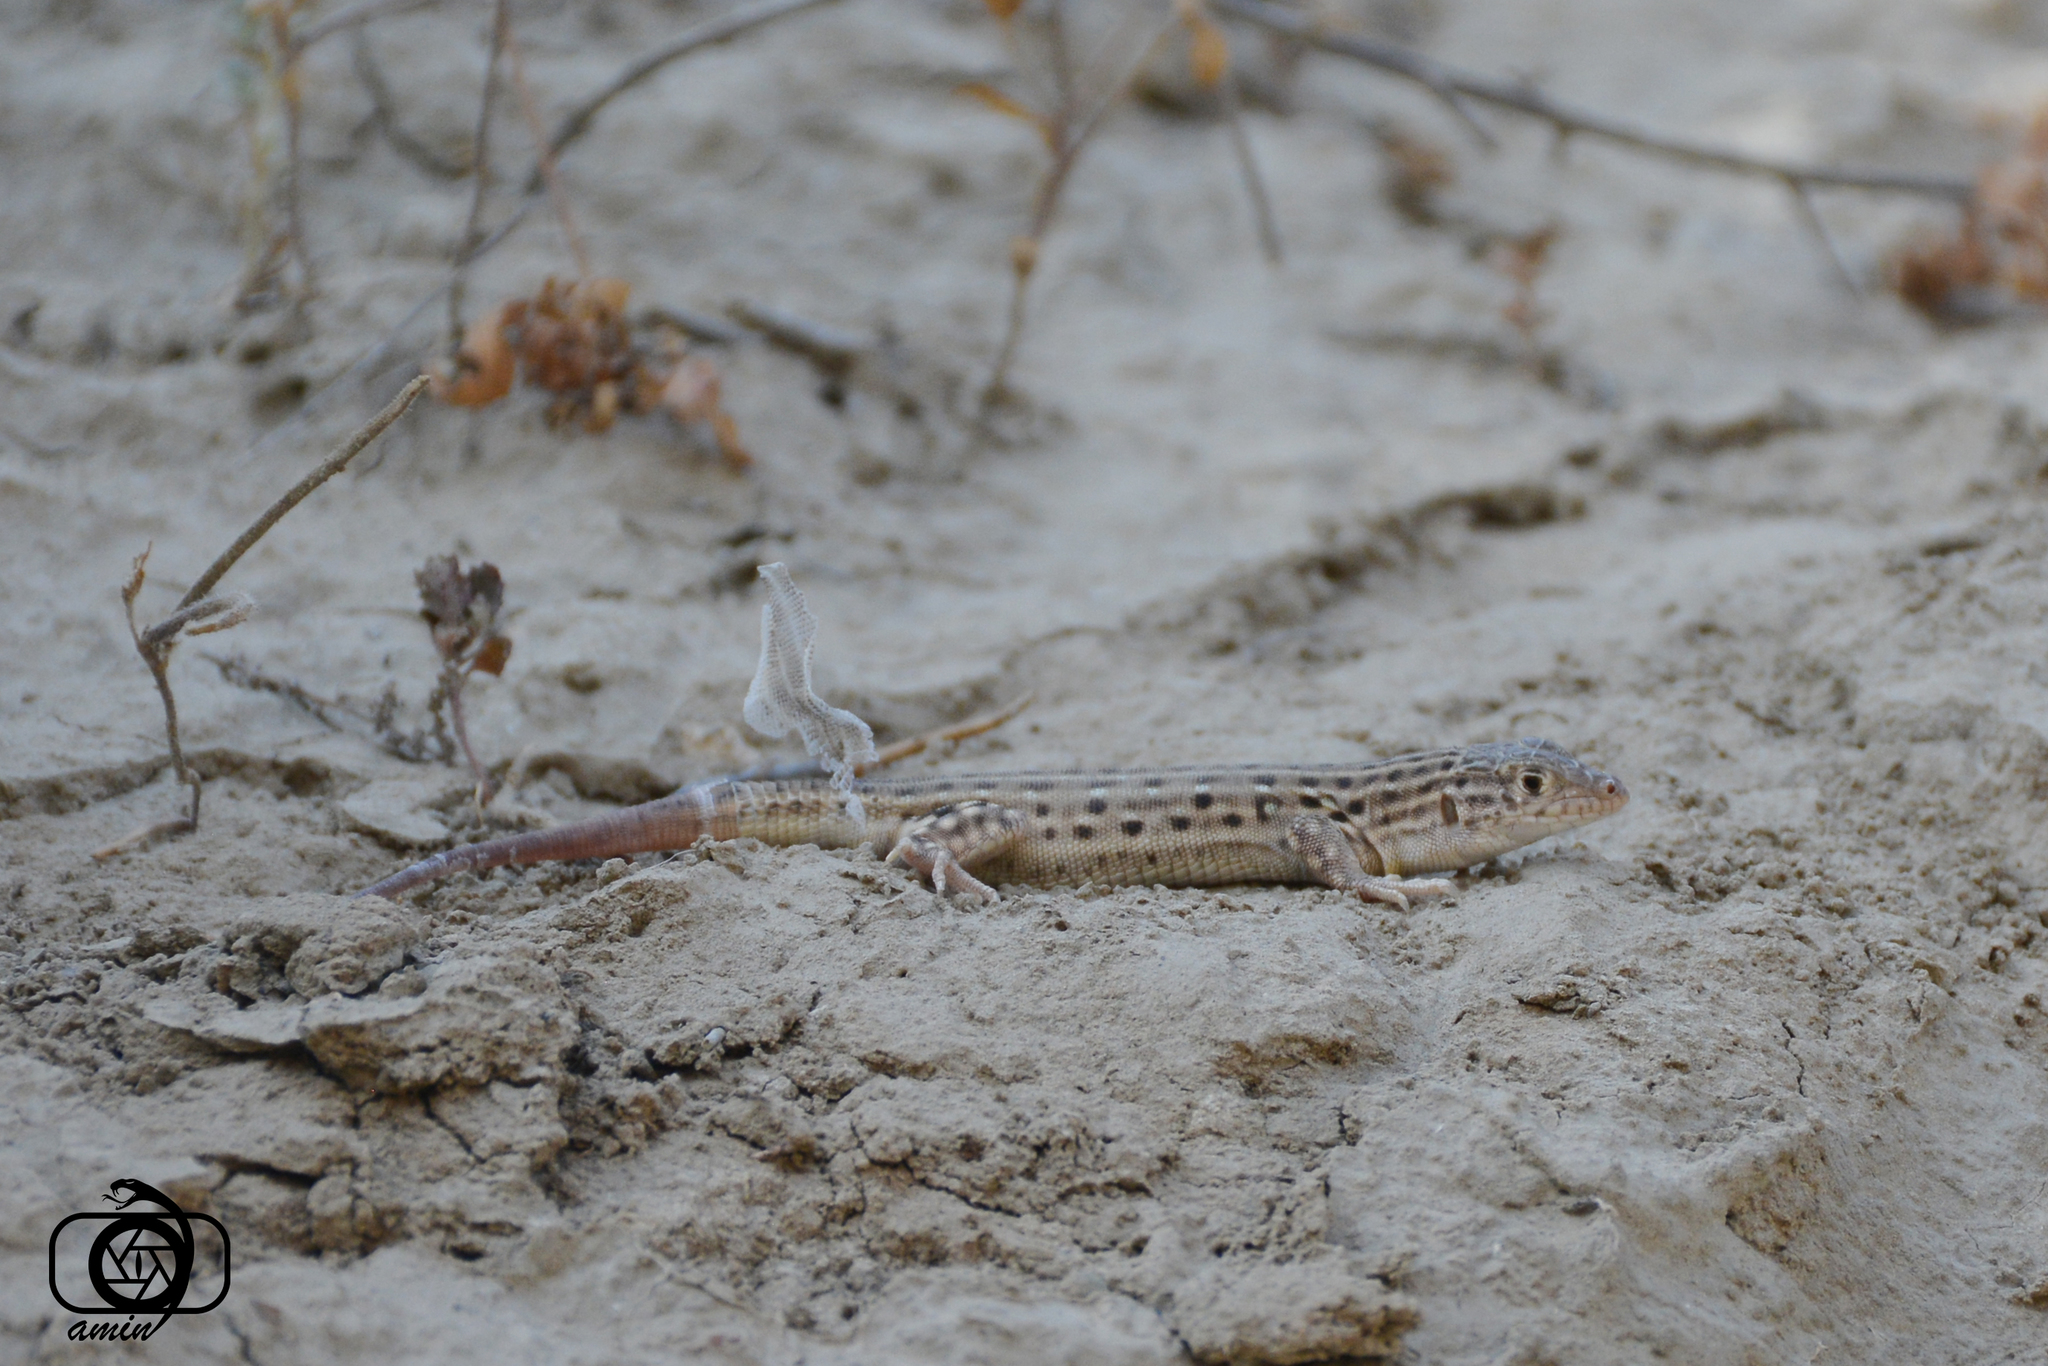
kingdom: Animalia
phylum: Chordata
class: Squamata
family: Lacertidae
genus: Eremias
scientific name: Eremias kopetdaghica
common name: Kopet dagh racerunner
